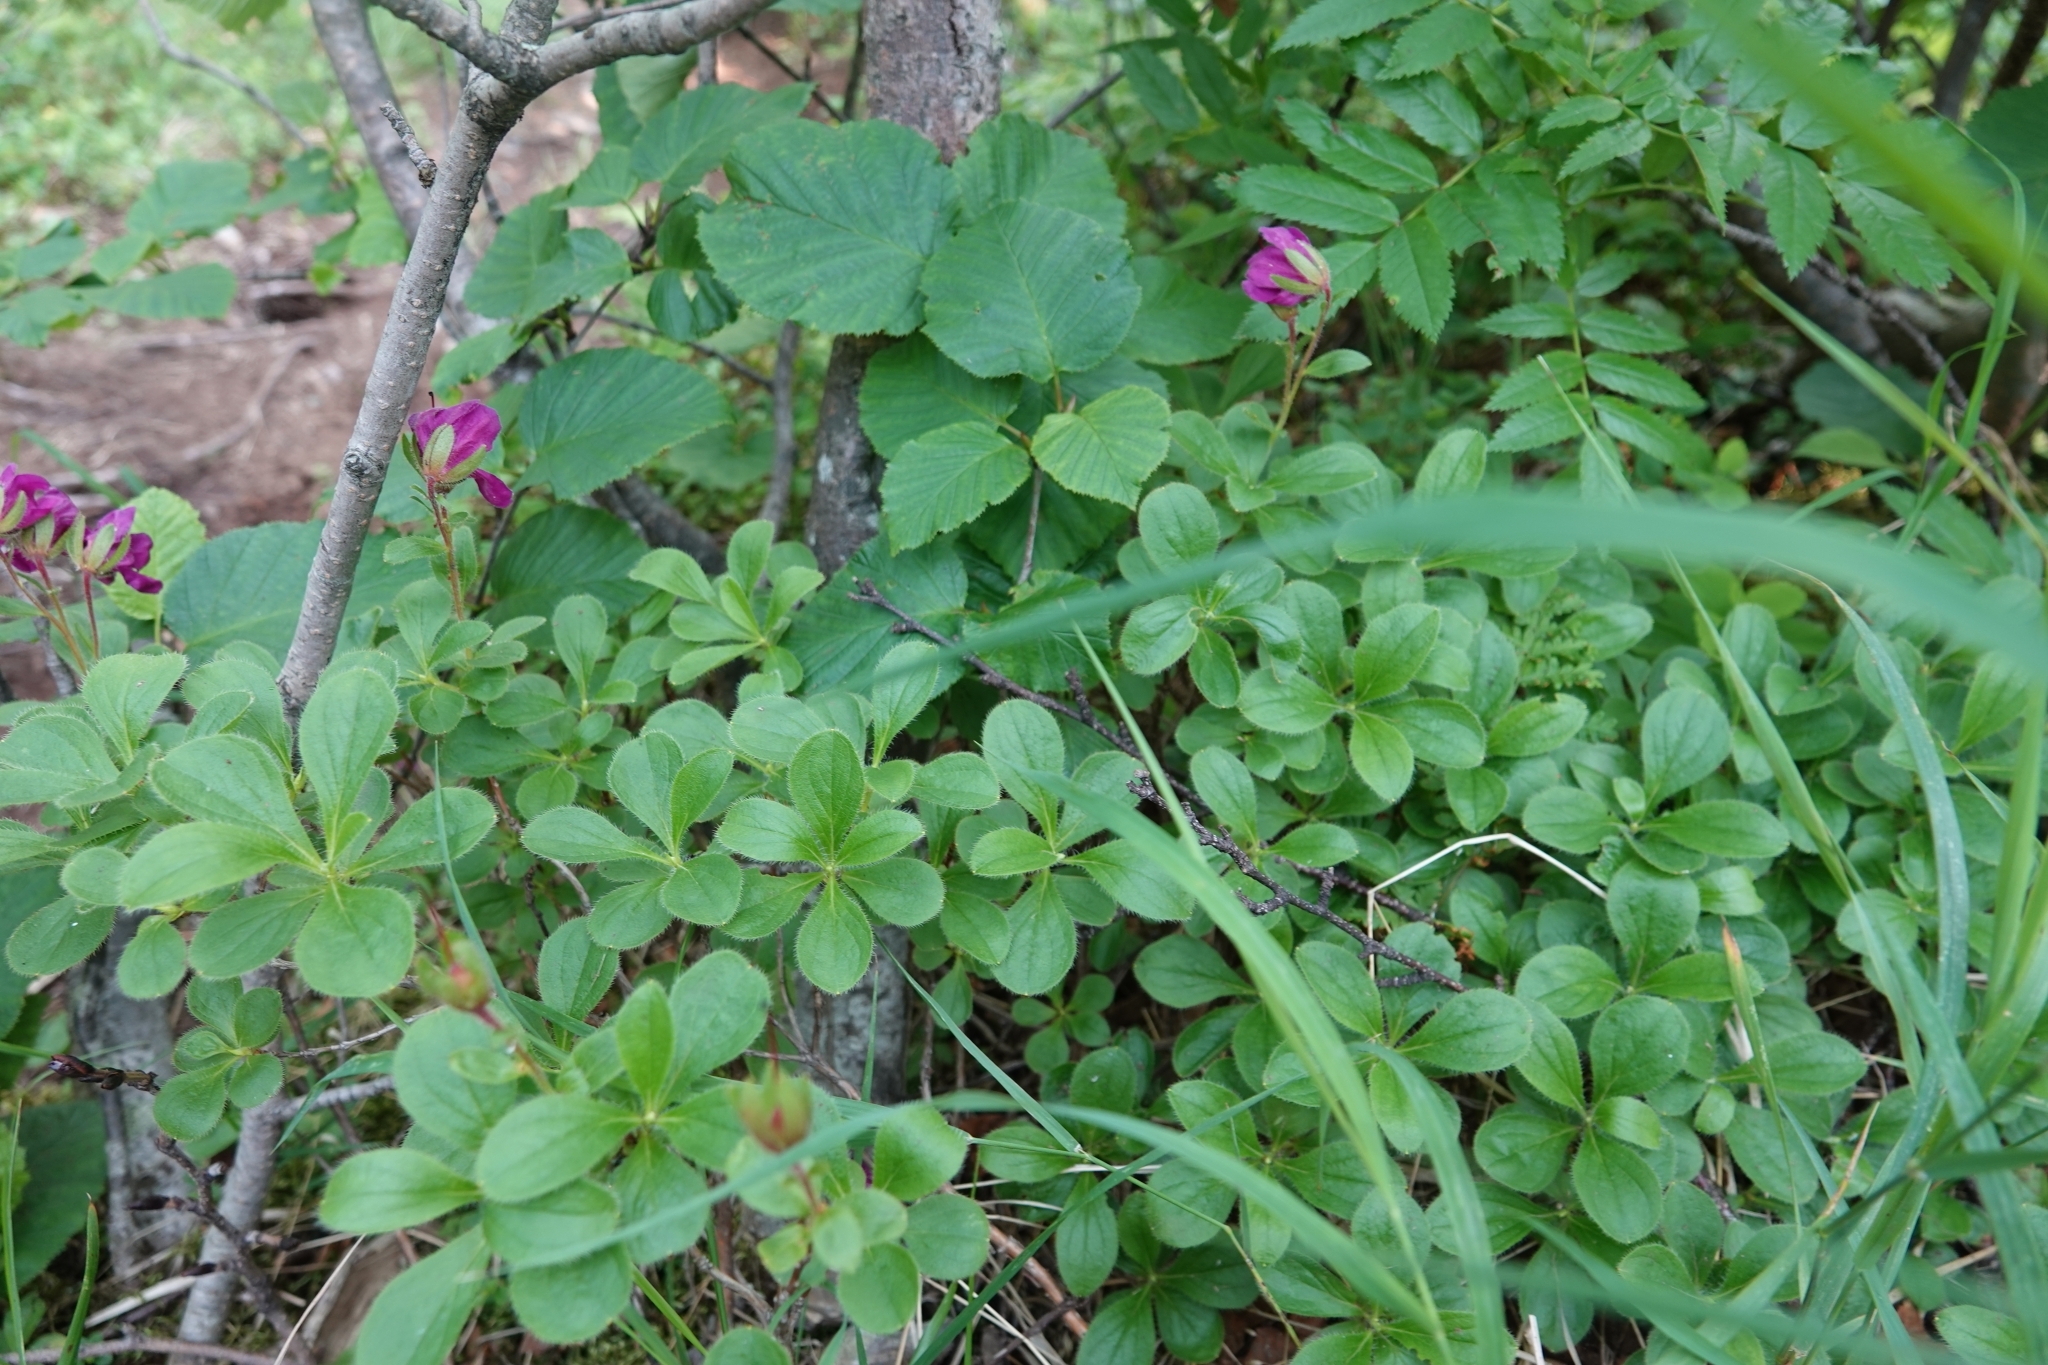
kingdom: Plantae
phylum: Tracheophyta
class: Magnoliopsida
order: Ericales
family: Ericaceae
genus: Rhododendron
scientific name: Rhododendron camtschaticum
